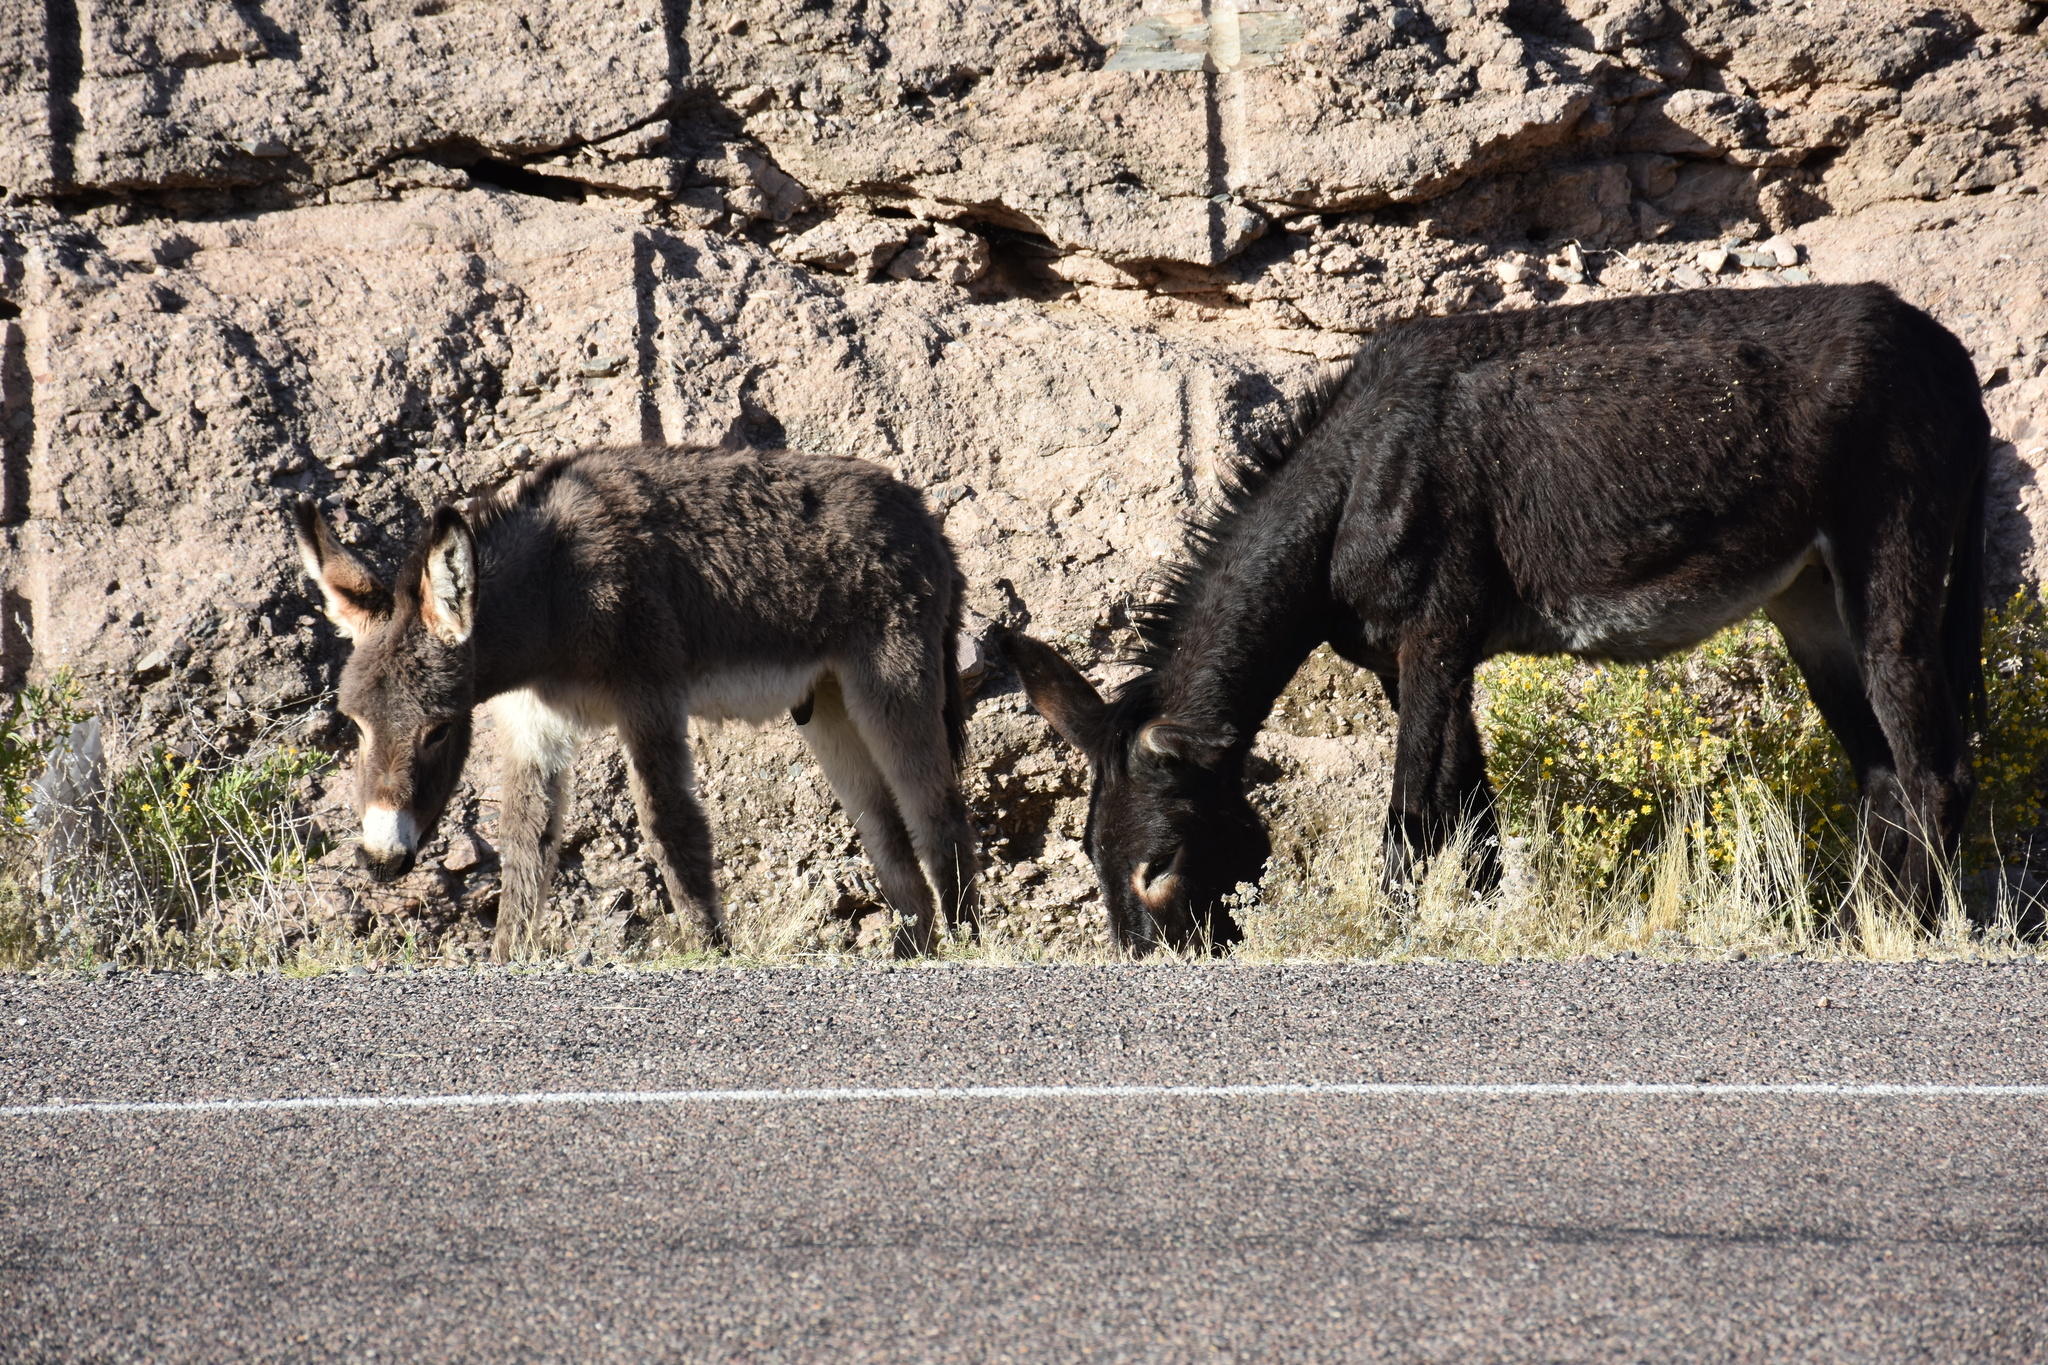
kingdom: Animalia
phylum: Chordata
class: Mammalia
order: Perissodactyla
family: Equidae
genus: Equus
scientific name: Equus asinus
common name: Ass
